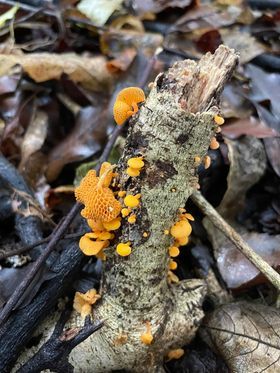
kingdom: Fungi
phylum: Basidiomycota
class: Agaricomycetes
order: Agaricales
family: Mycenaceae
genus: Favolaschia
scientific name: Favolaschia claudopus
